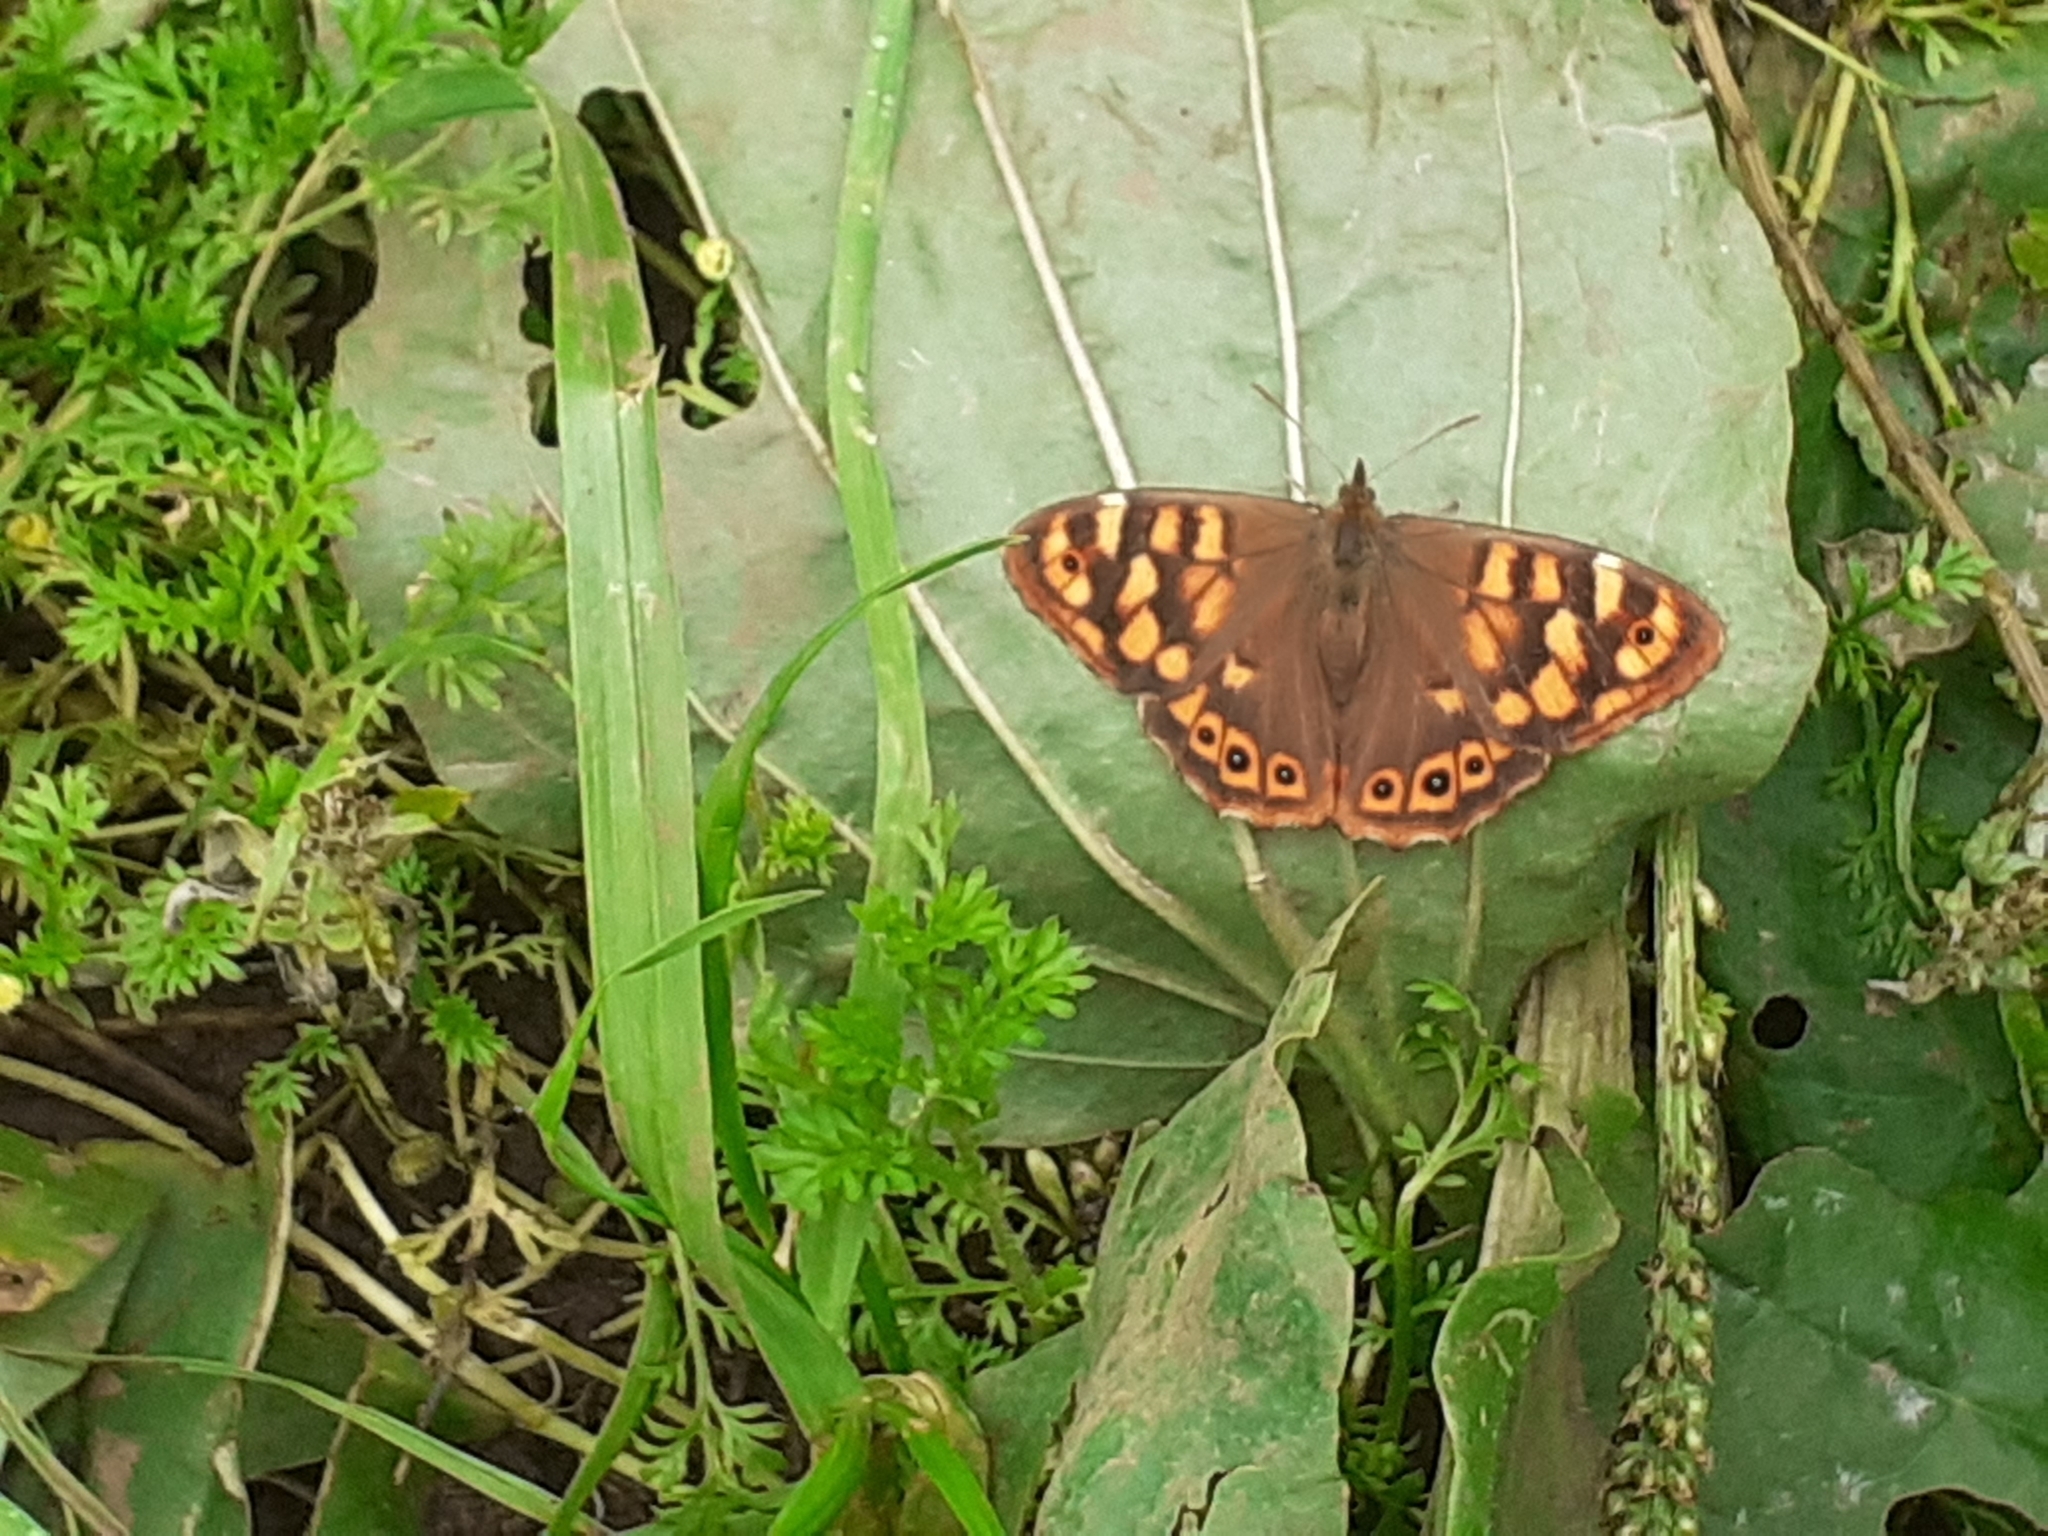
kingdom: Animalia
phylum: Arthropoda
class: Insecta
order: Lepidoptera
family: Nymphalidae
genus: Pararge
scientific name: Pararge aegeria
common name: Speckled wood
